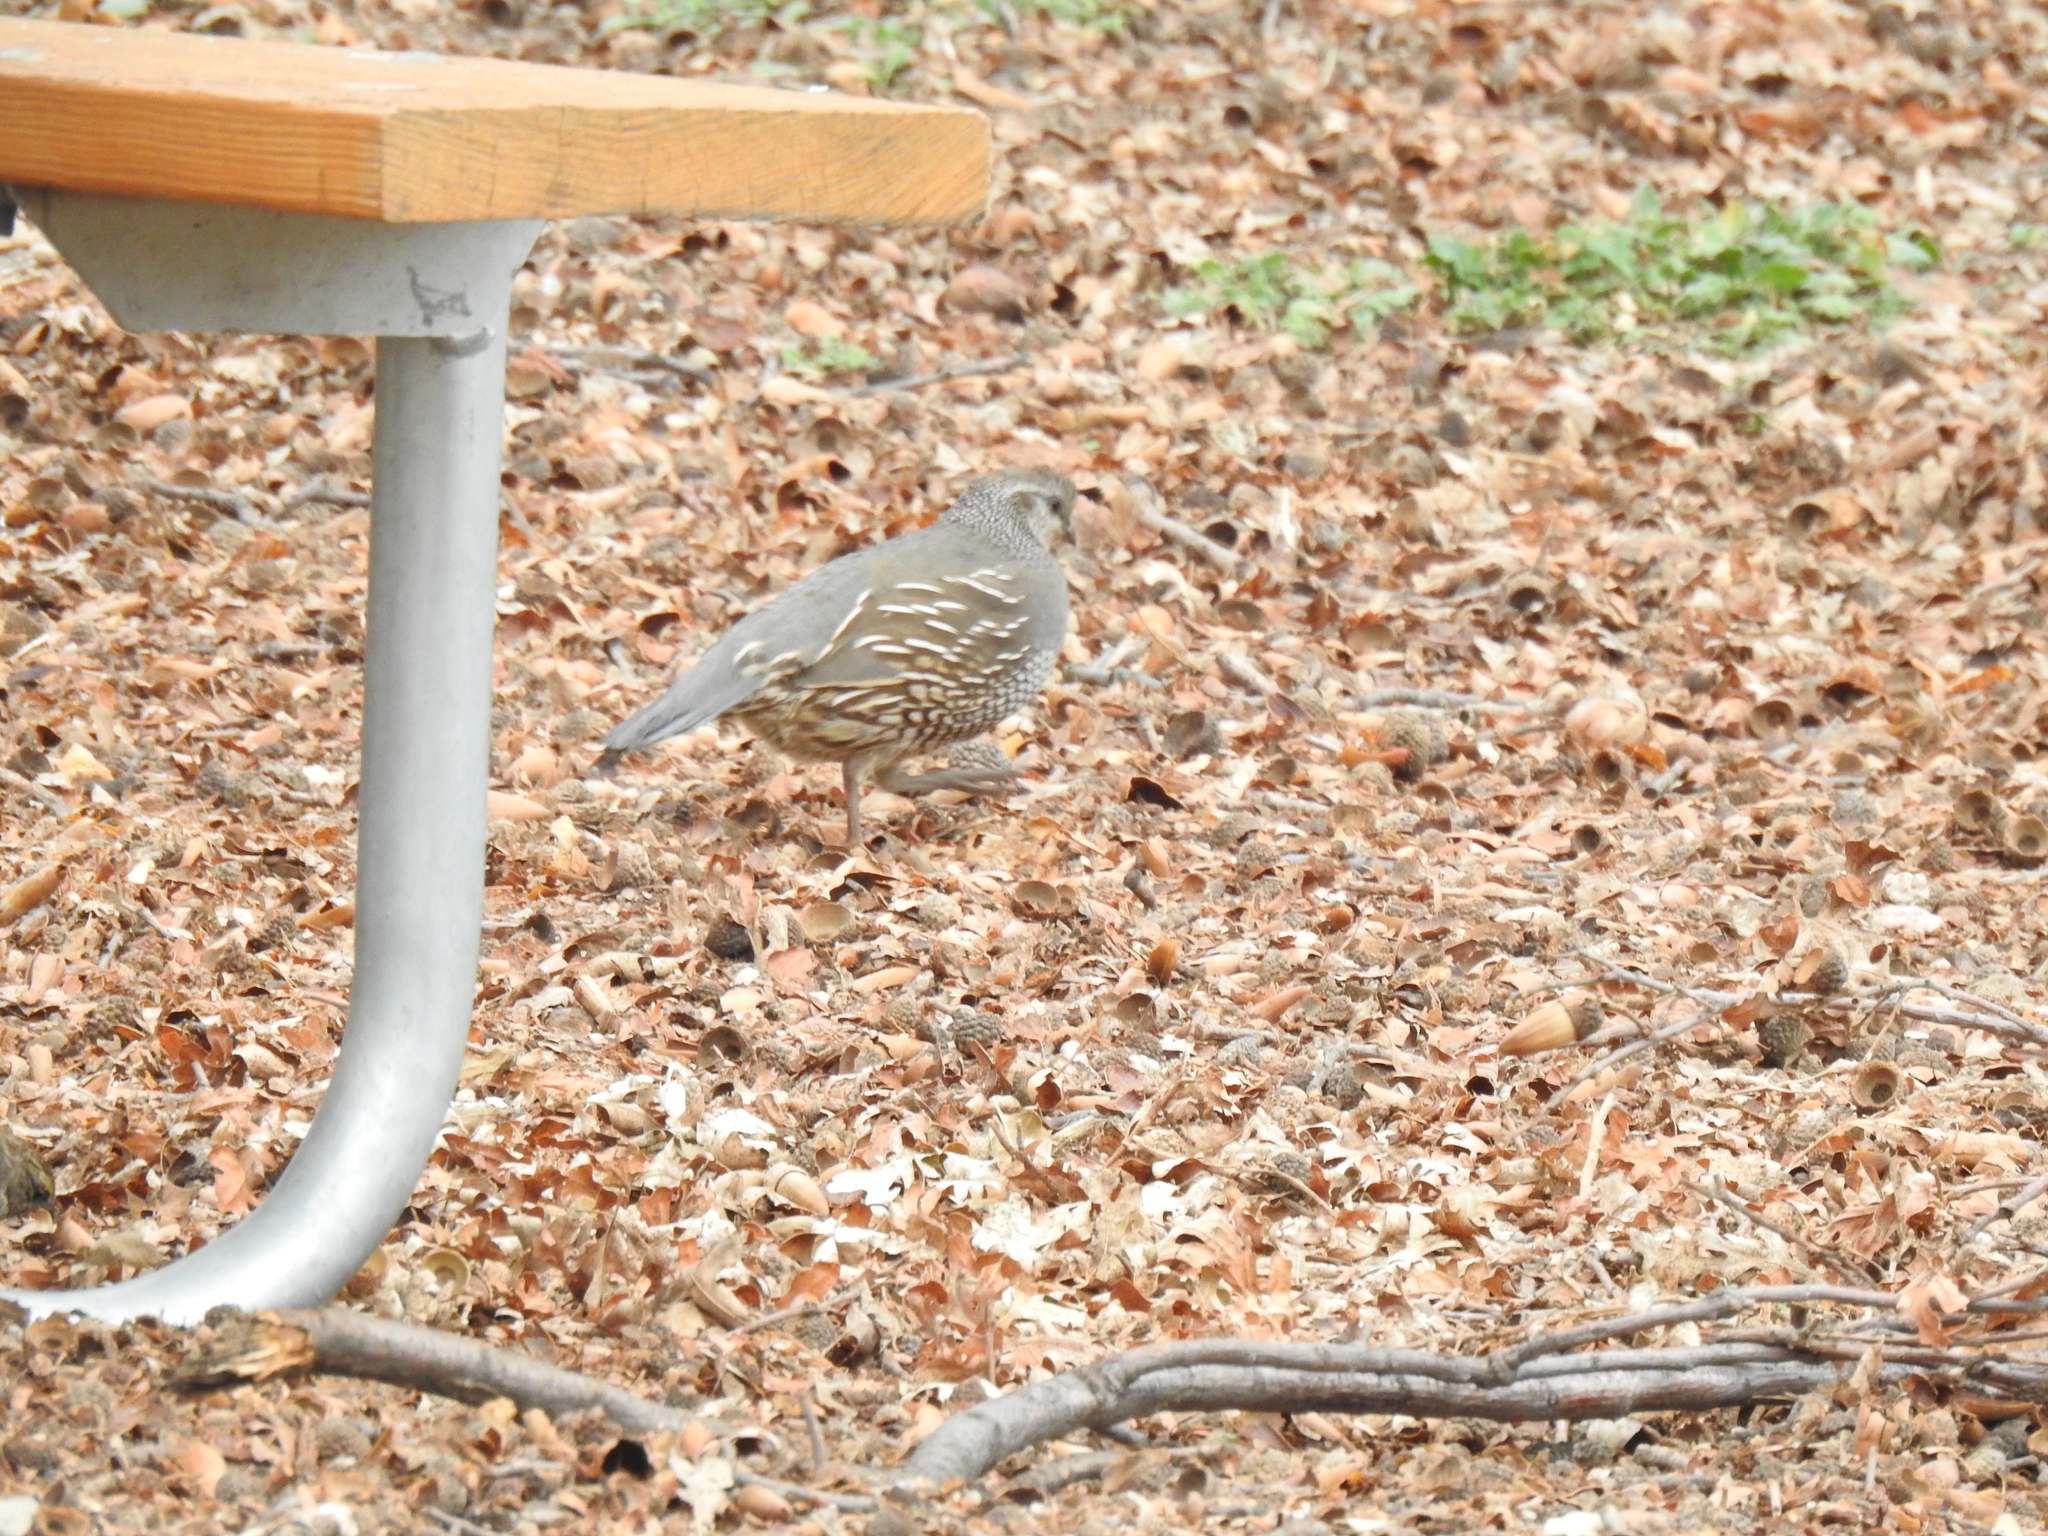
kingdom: Animalia
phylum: Chordata
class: Aves
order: Galliformes
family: Odontophoridae
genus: Callipepla
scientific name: Callipepla californica
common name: California quail
